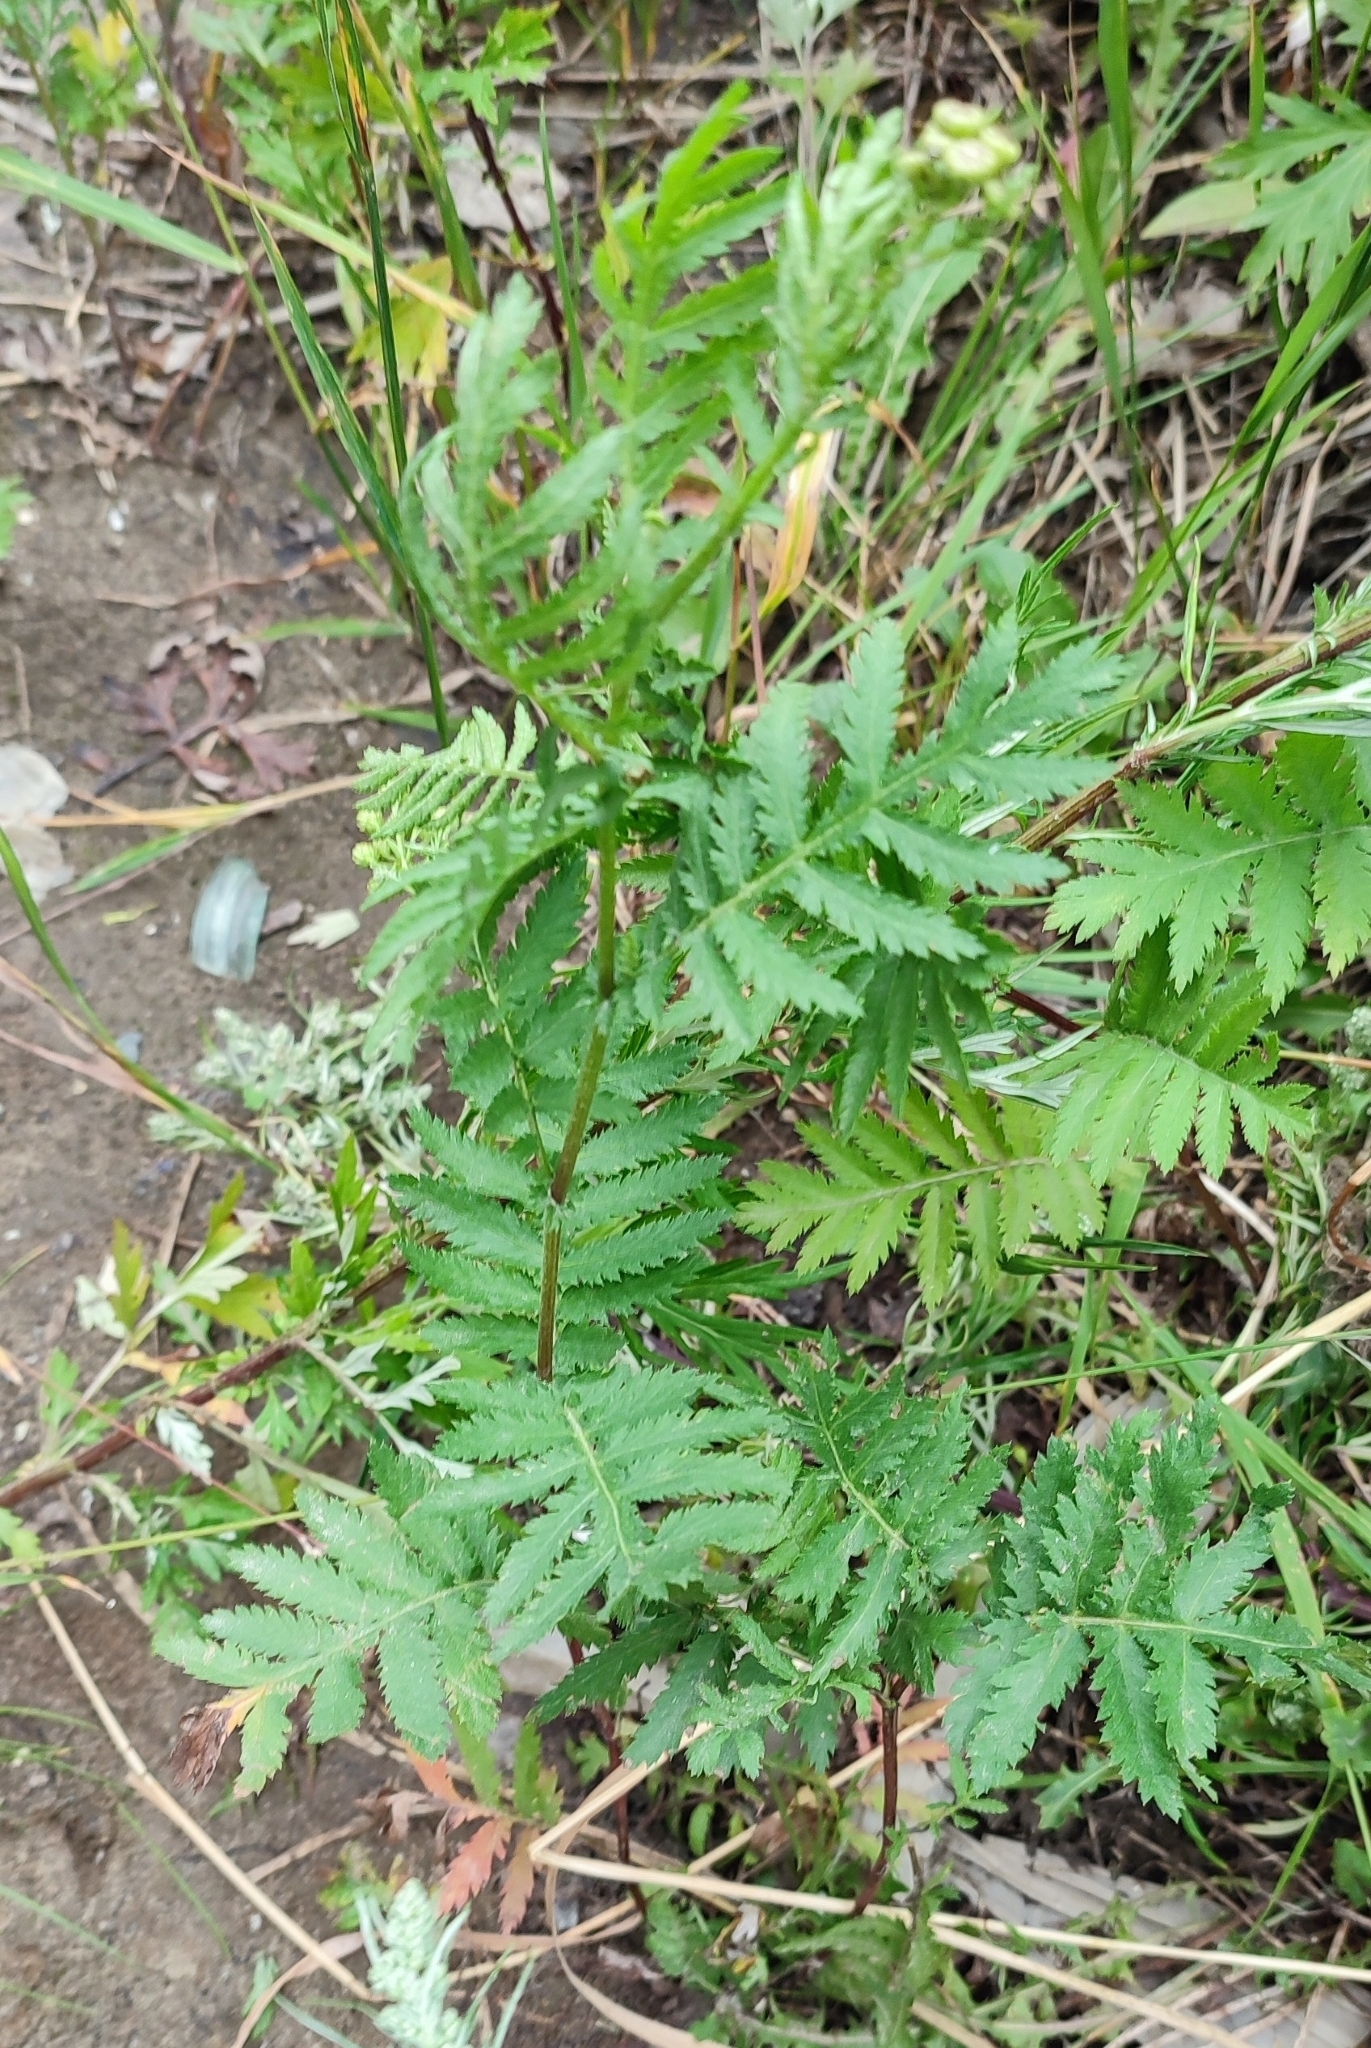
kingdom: Plantae
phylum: Tracheophyta
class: Magnoliopsida
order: Asterales
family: Asteraceae
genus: Tanacetum
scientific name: Tanacetum vulgare
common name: Common tansy
